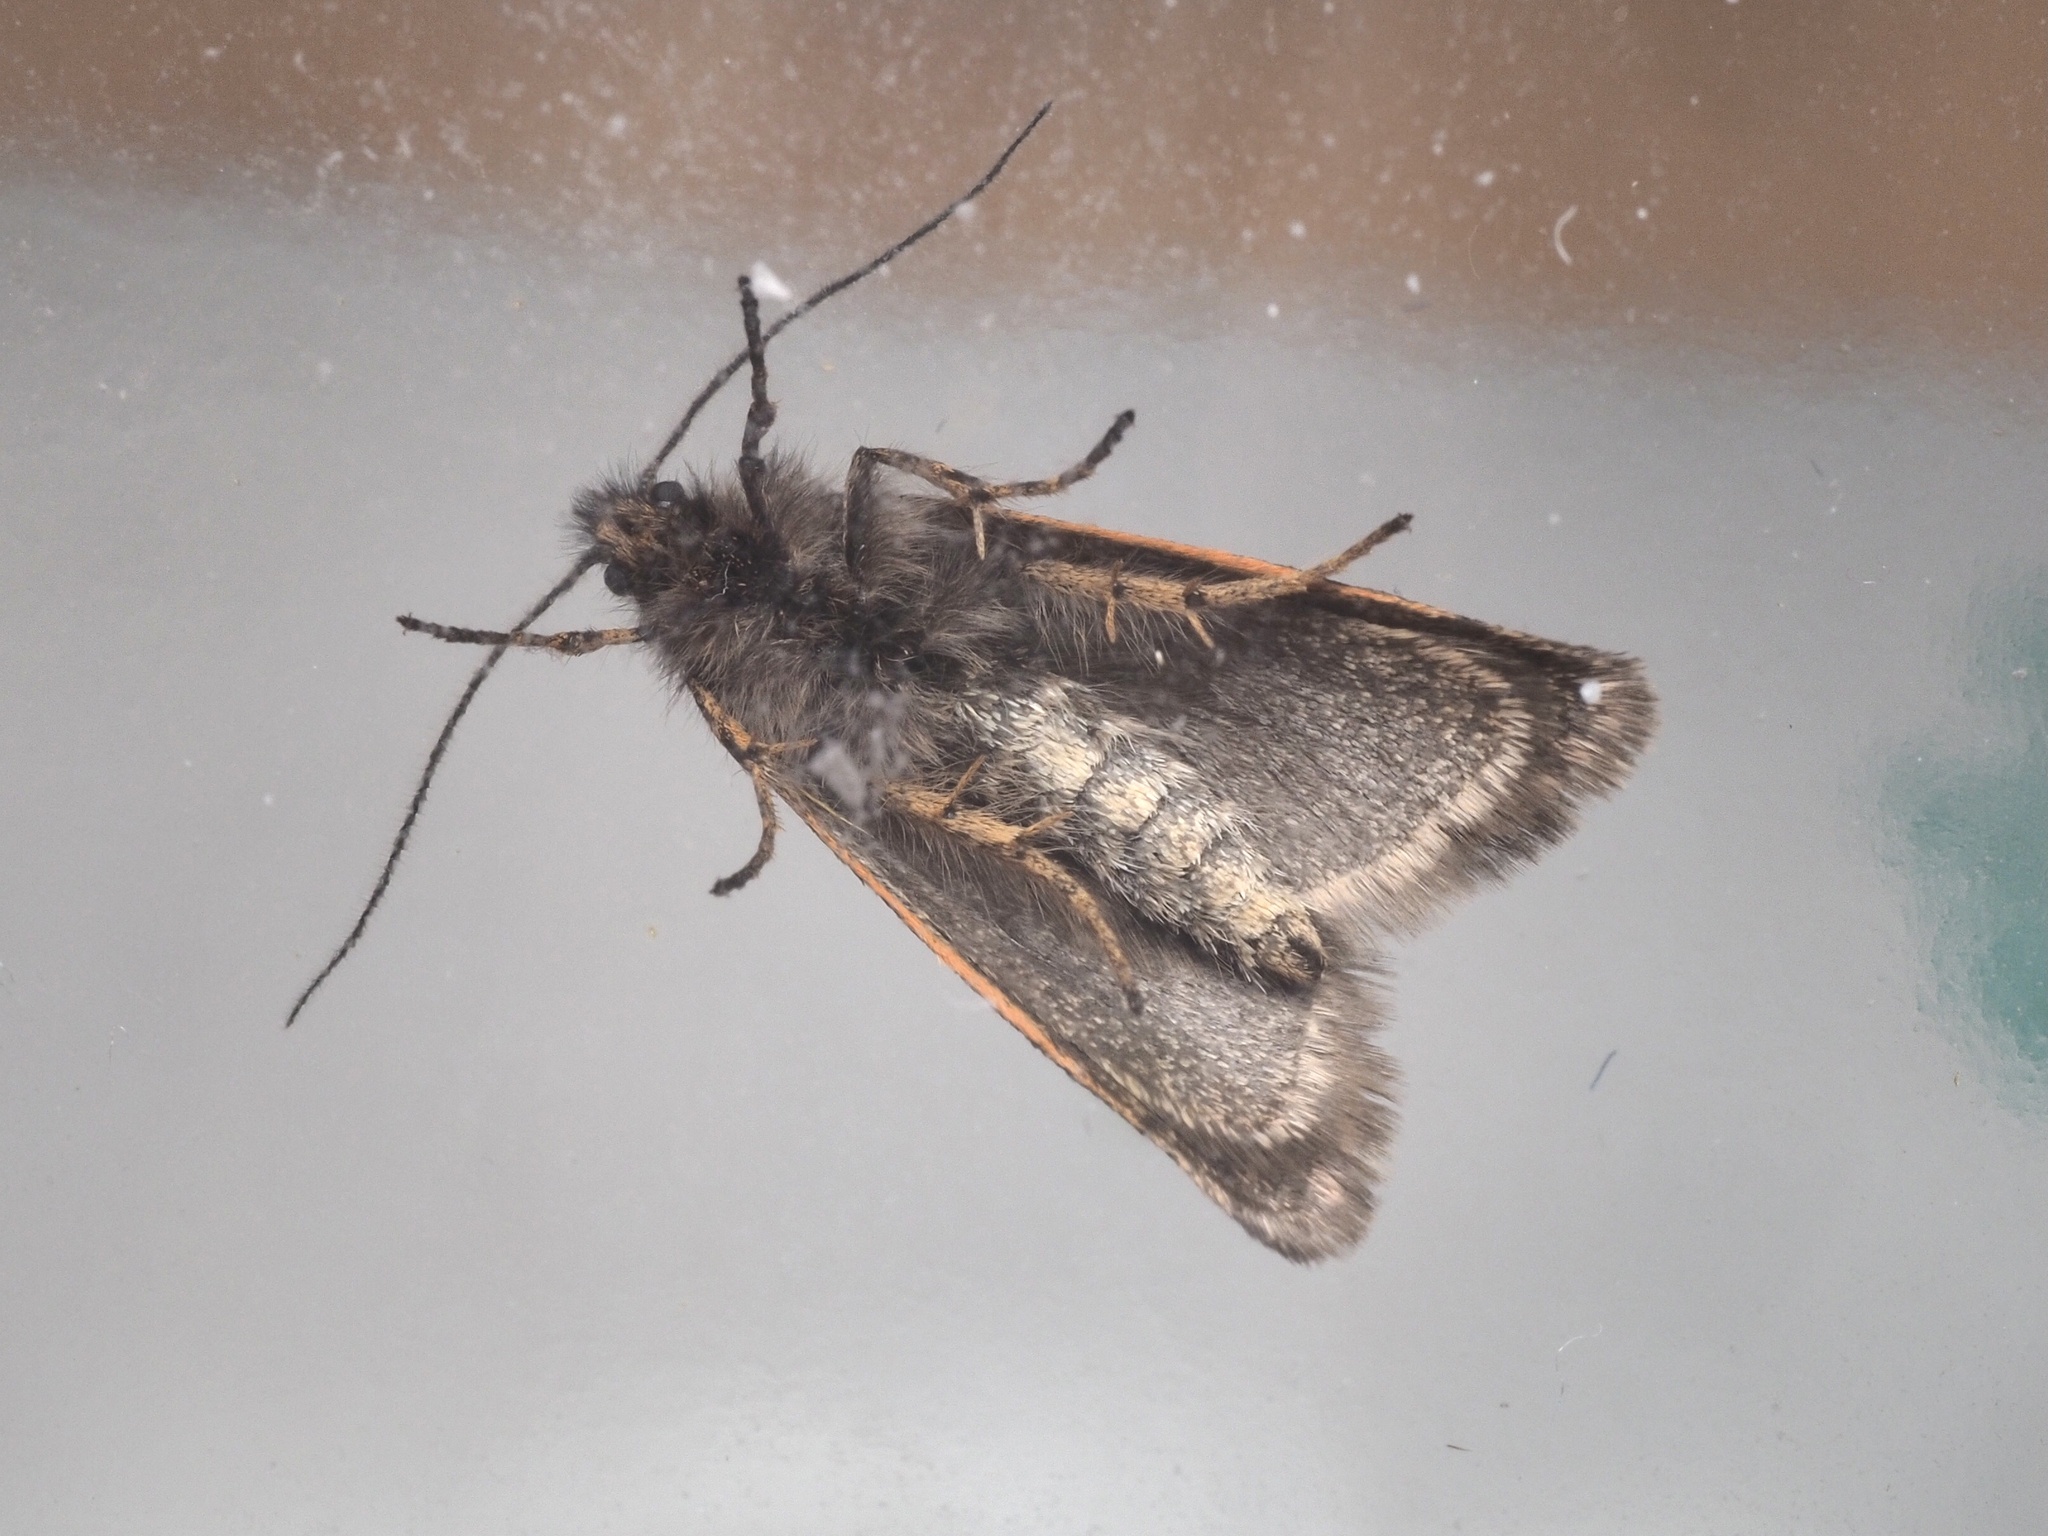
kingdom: Animalia
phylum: Arthropoda
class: Insecta
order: Lepidoptera
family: Lypusidae
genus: Dasystoma
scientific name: Dasystoma salicella
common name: Blueberry leafroller
